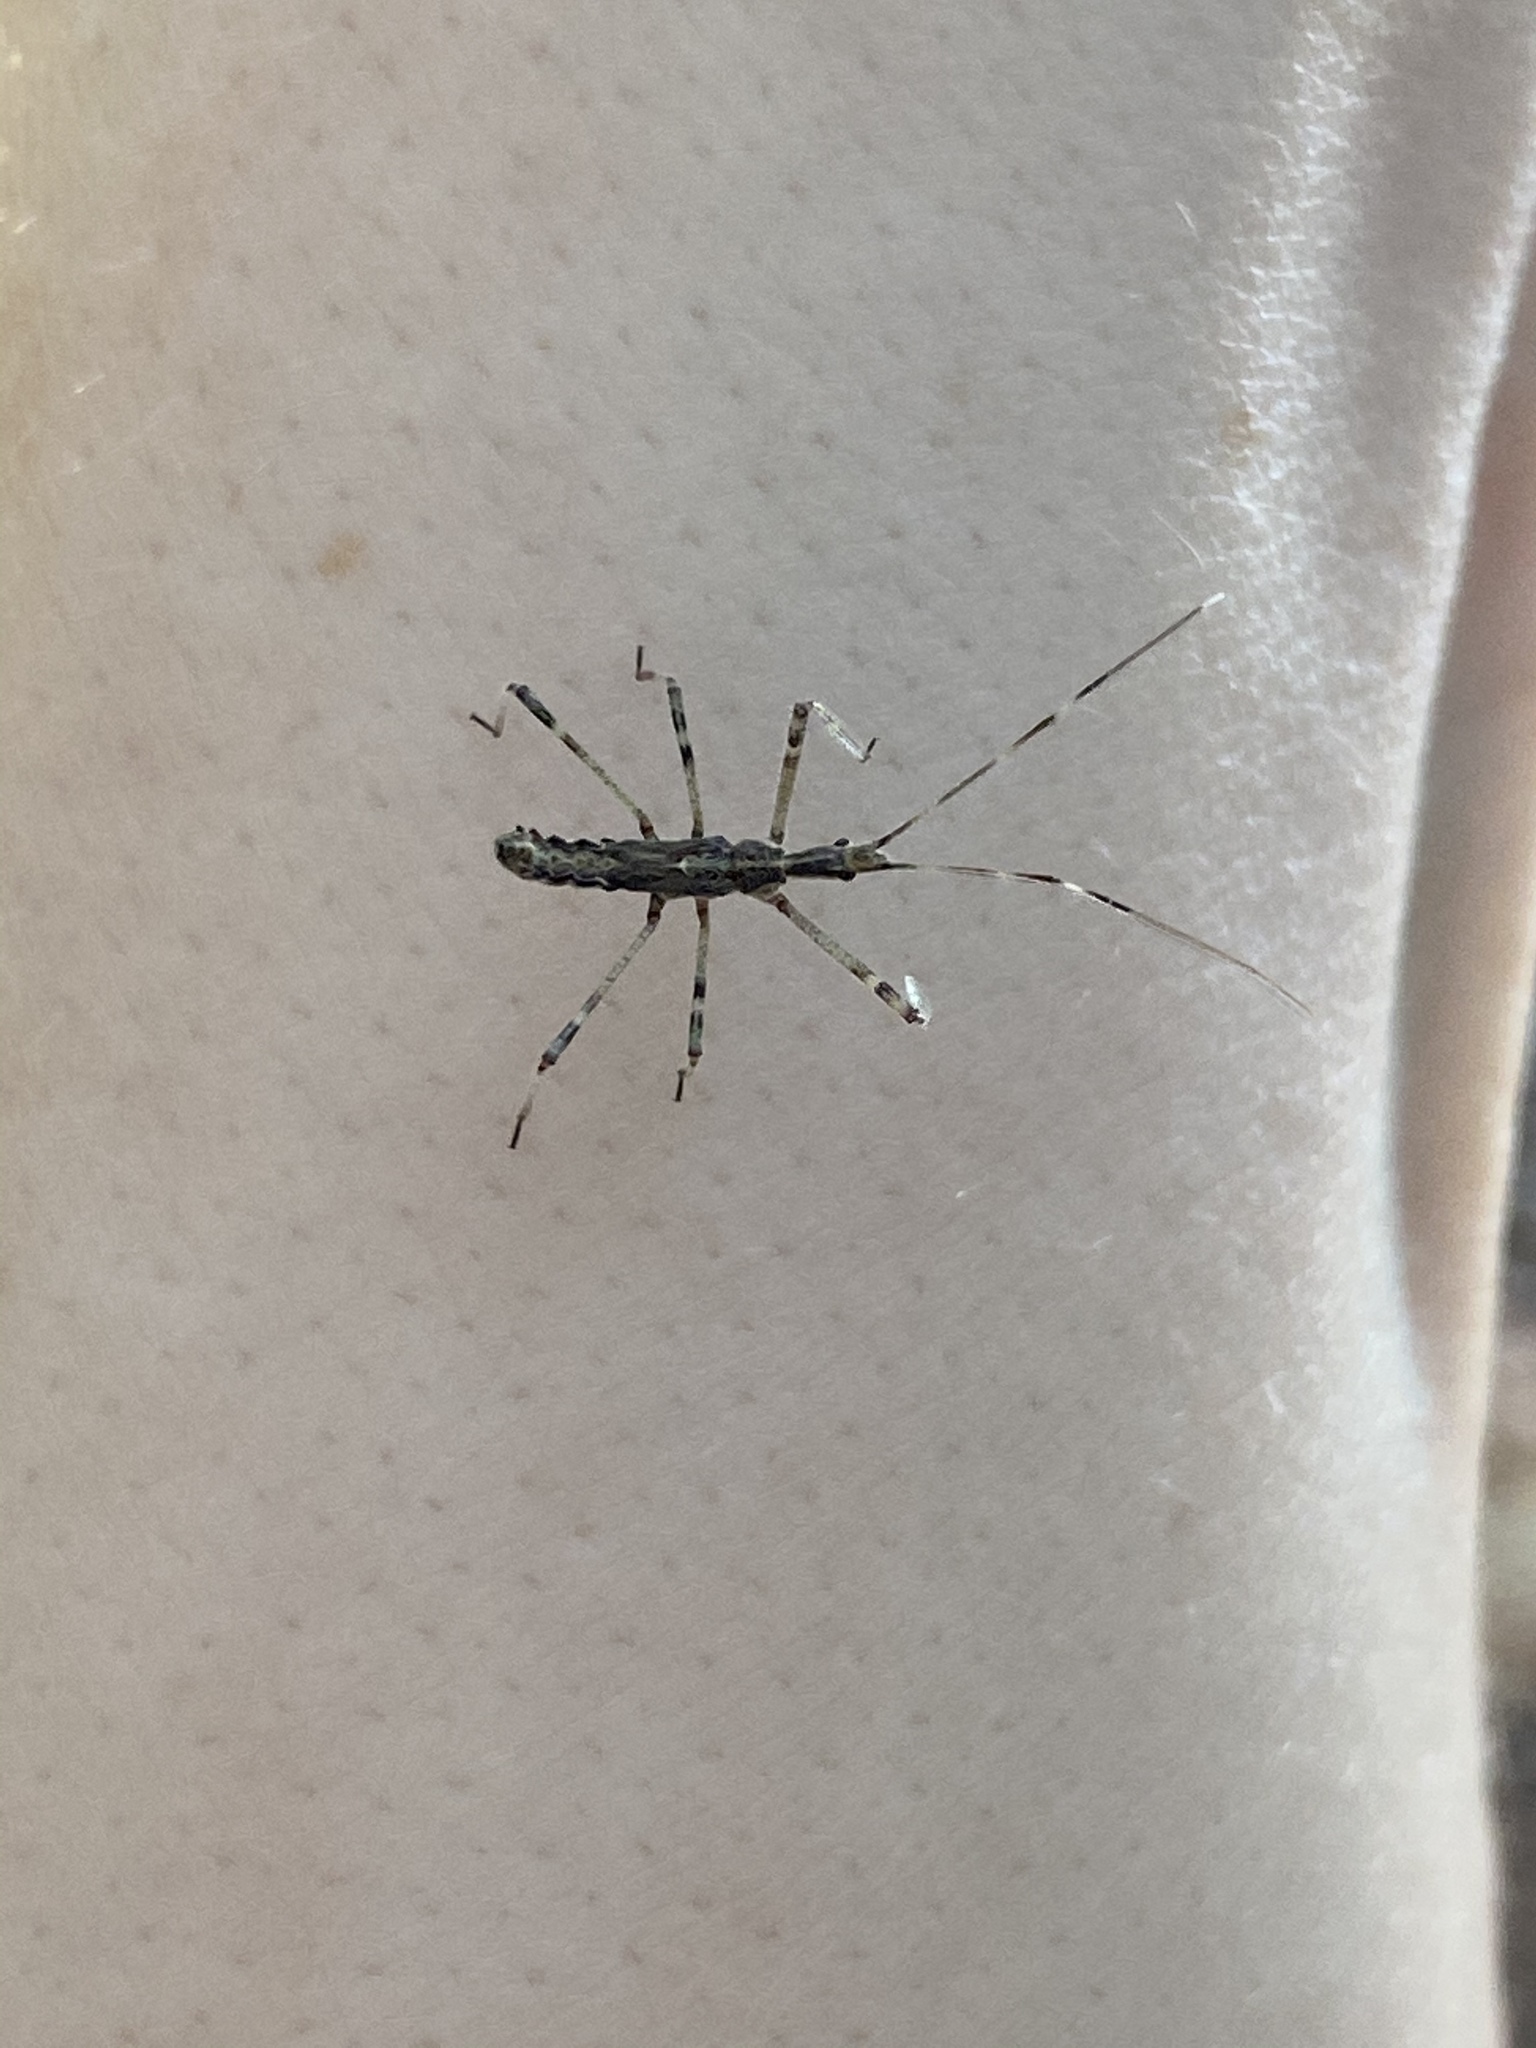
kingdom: Animalia
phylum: Arthropoda
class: Insecta
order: Hemiptera
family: Reduviidae
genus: Zelus
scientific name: Zelus tetracanthus
